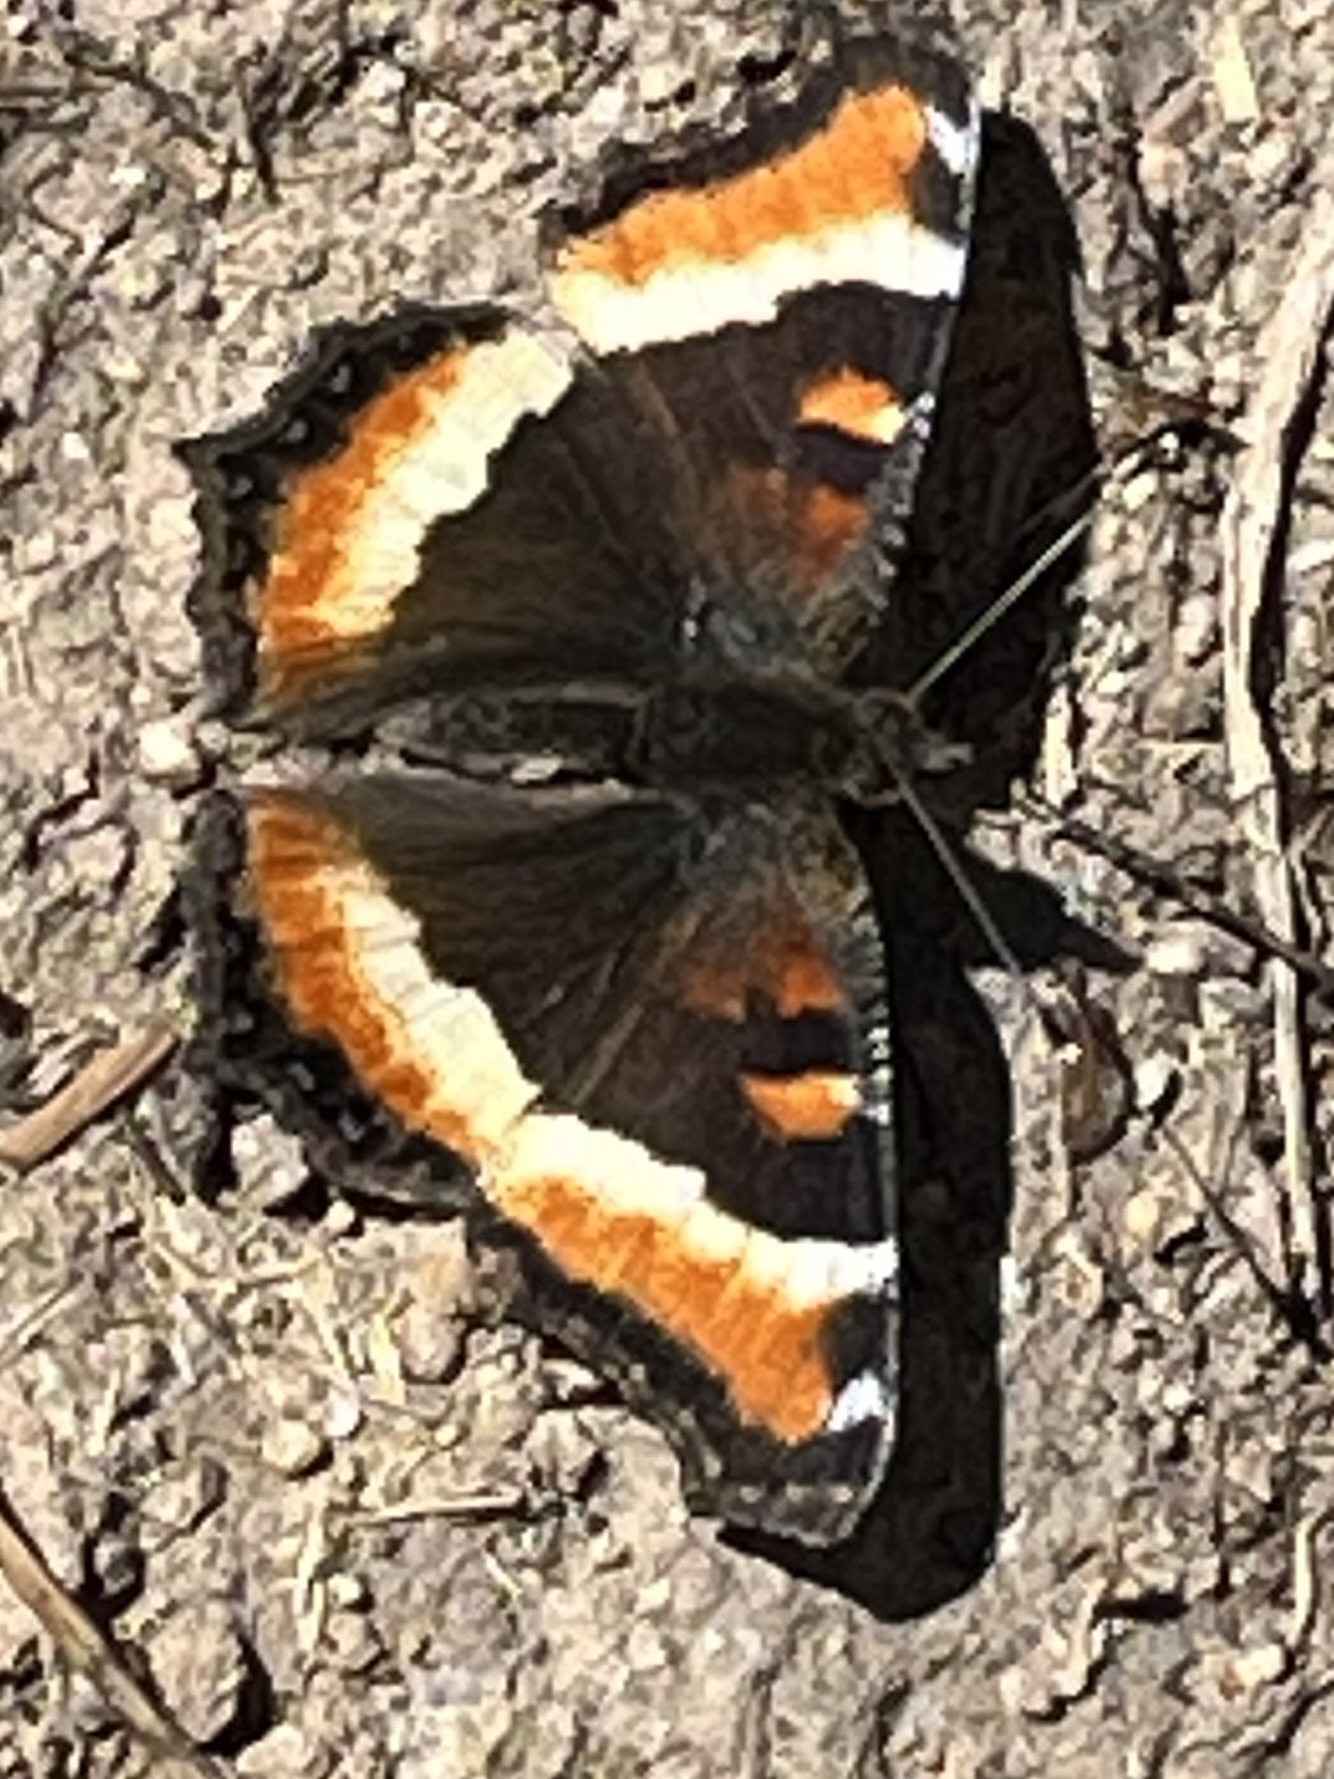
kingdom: Animalia
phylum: Arthropoda
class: Insecta
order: Lepidoptera
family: Nymphalidae
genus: Aglais
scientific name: Aglais milberti
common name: Milbert's tortoiseshell
